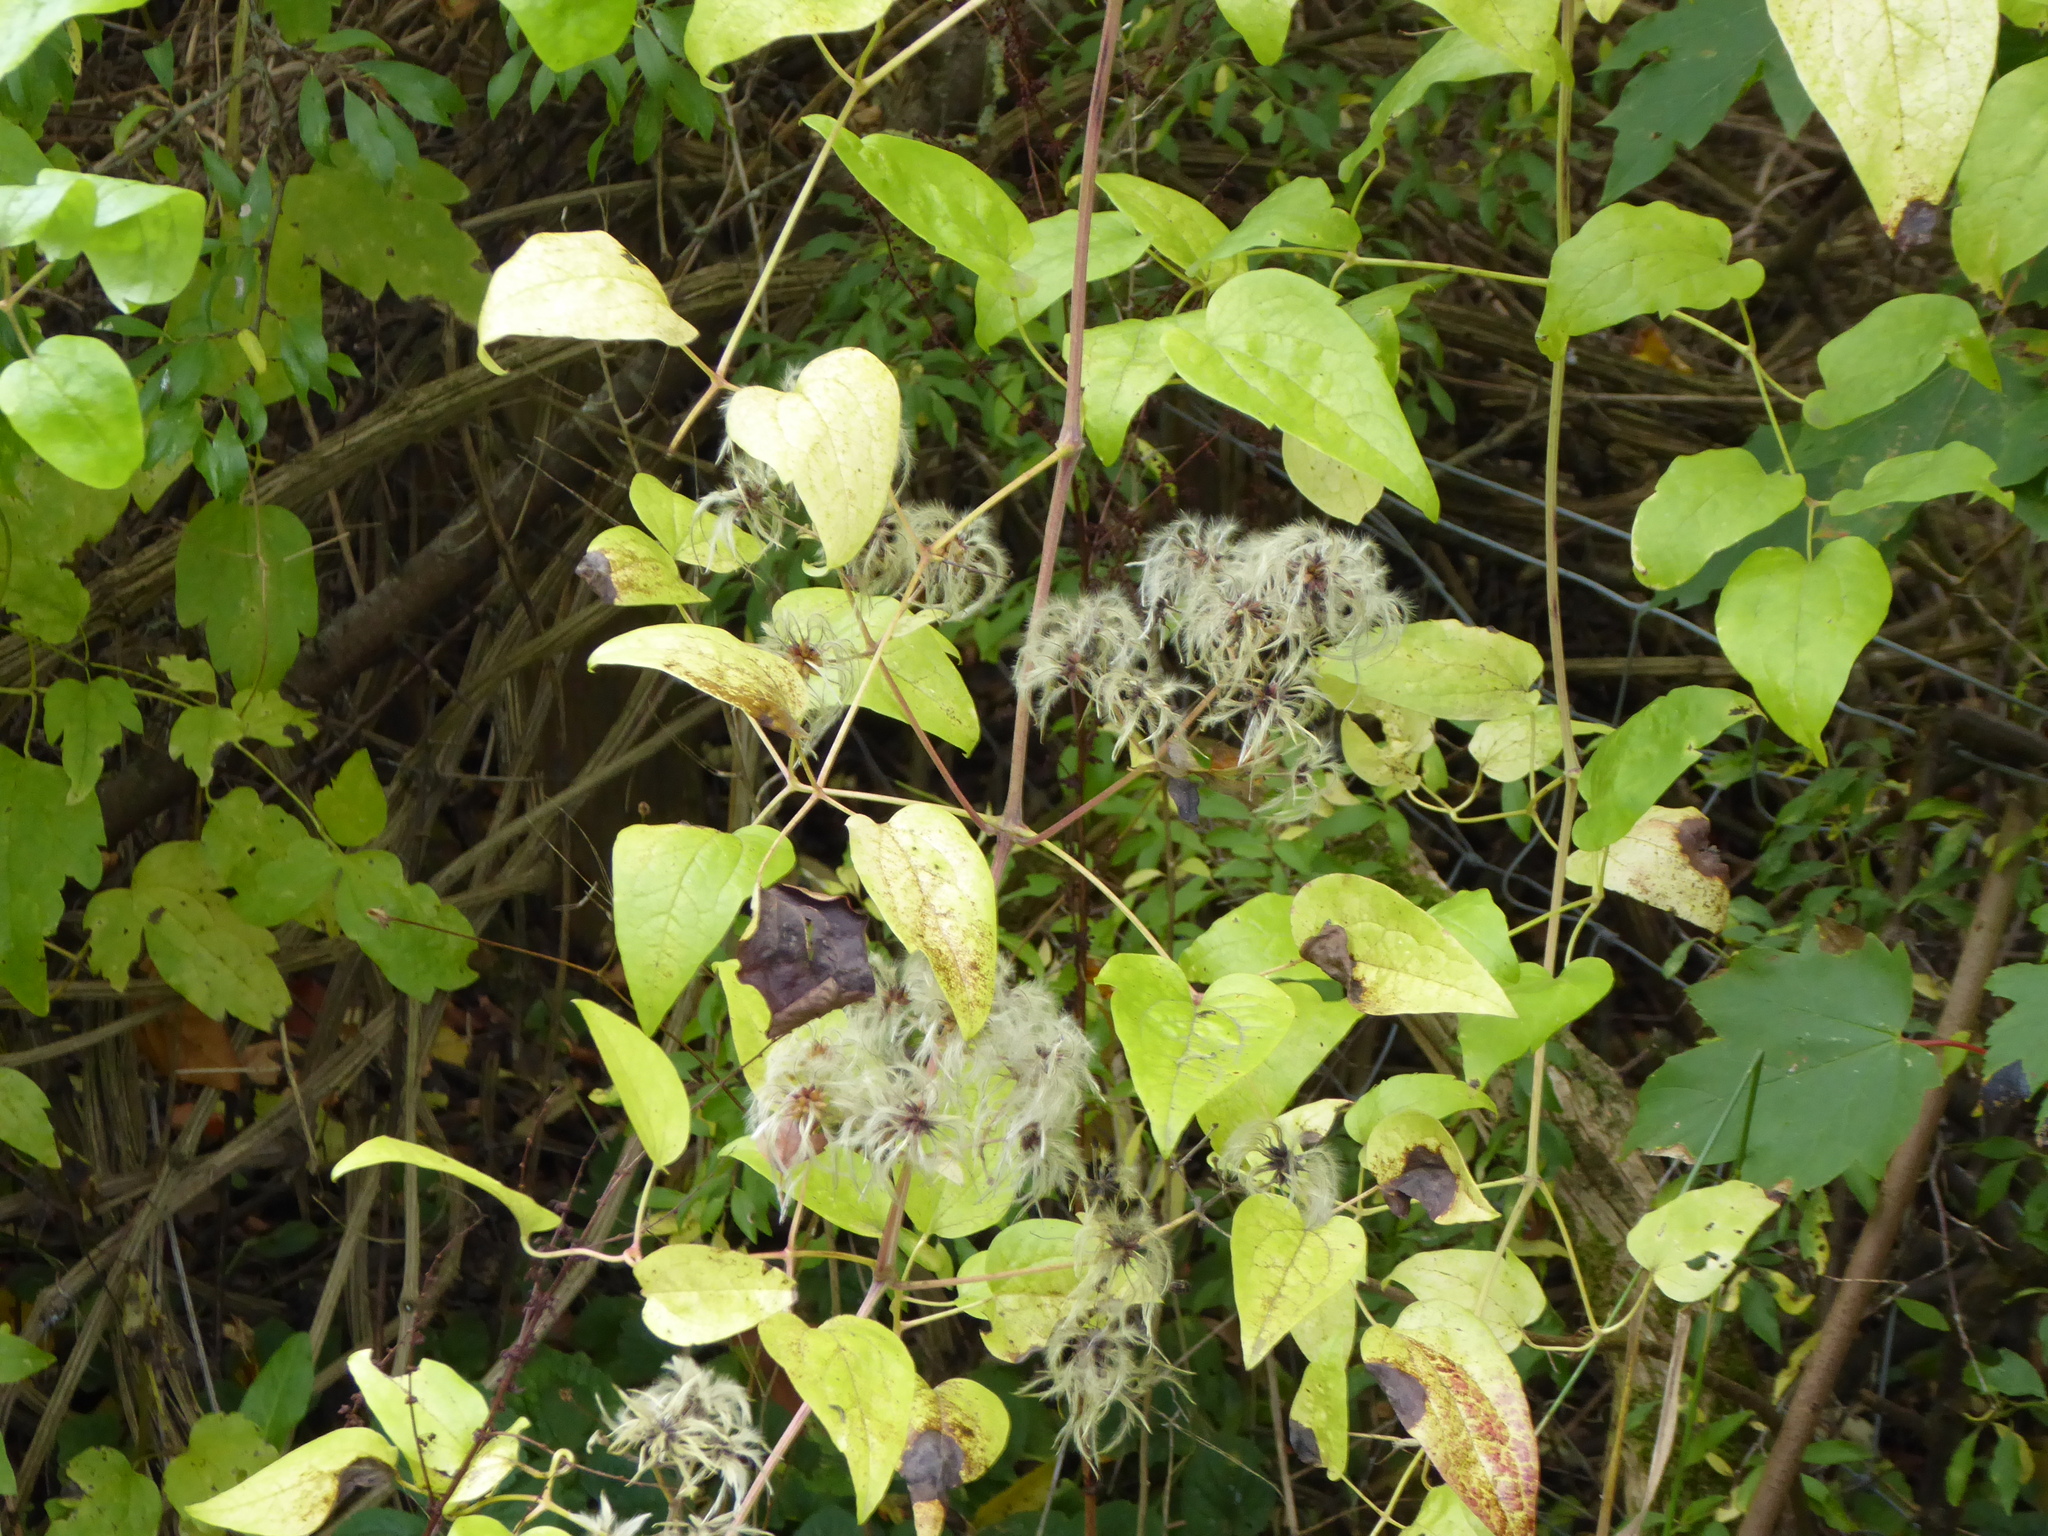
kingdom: Plantae
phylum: Tracheophyta
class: Magnoliopsida
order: Ranunculales
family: Ranunculaceae
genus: Clematis
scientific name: Clematis vitalba
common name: Evergreen clematis
